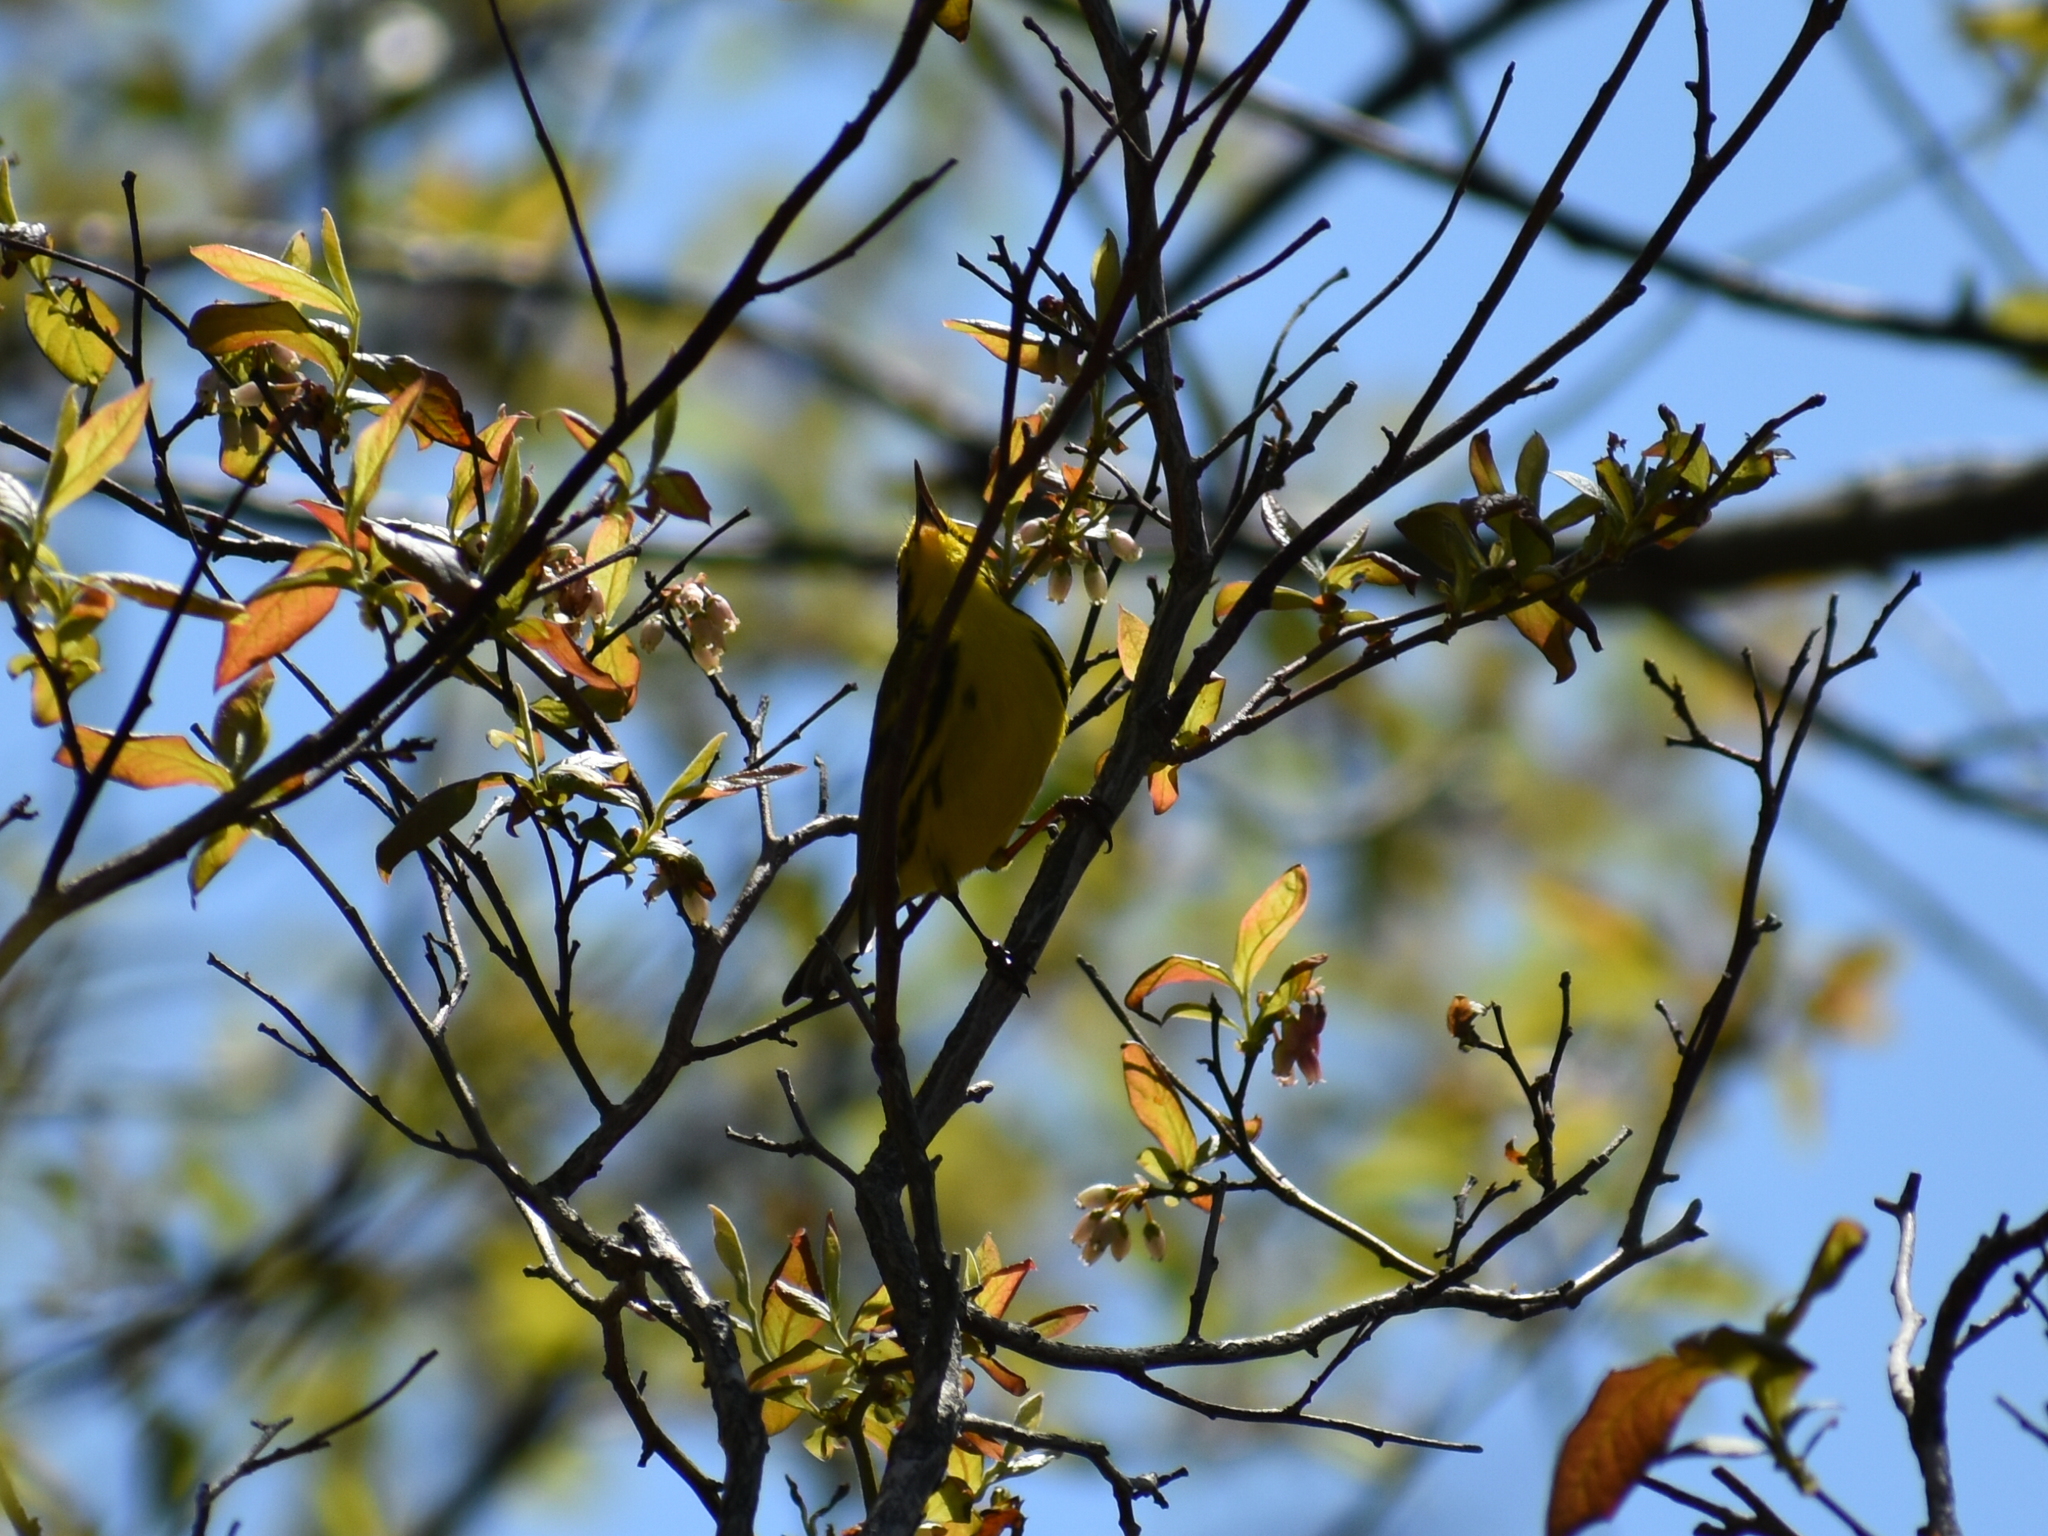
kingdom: Animalia
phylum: Chordata
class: Aves
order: Passeriformes
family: Parulidae
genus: Setophaga
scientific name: Setophaga discolor
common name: Prairie warbler
